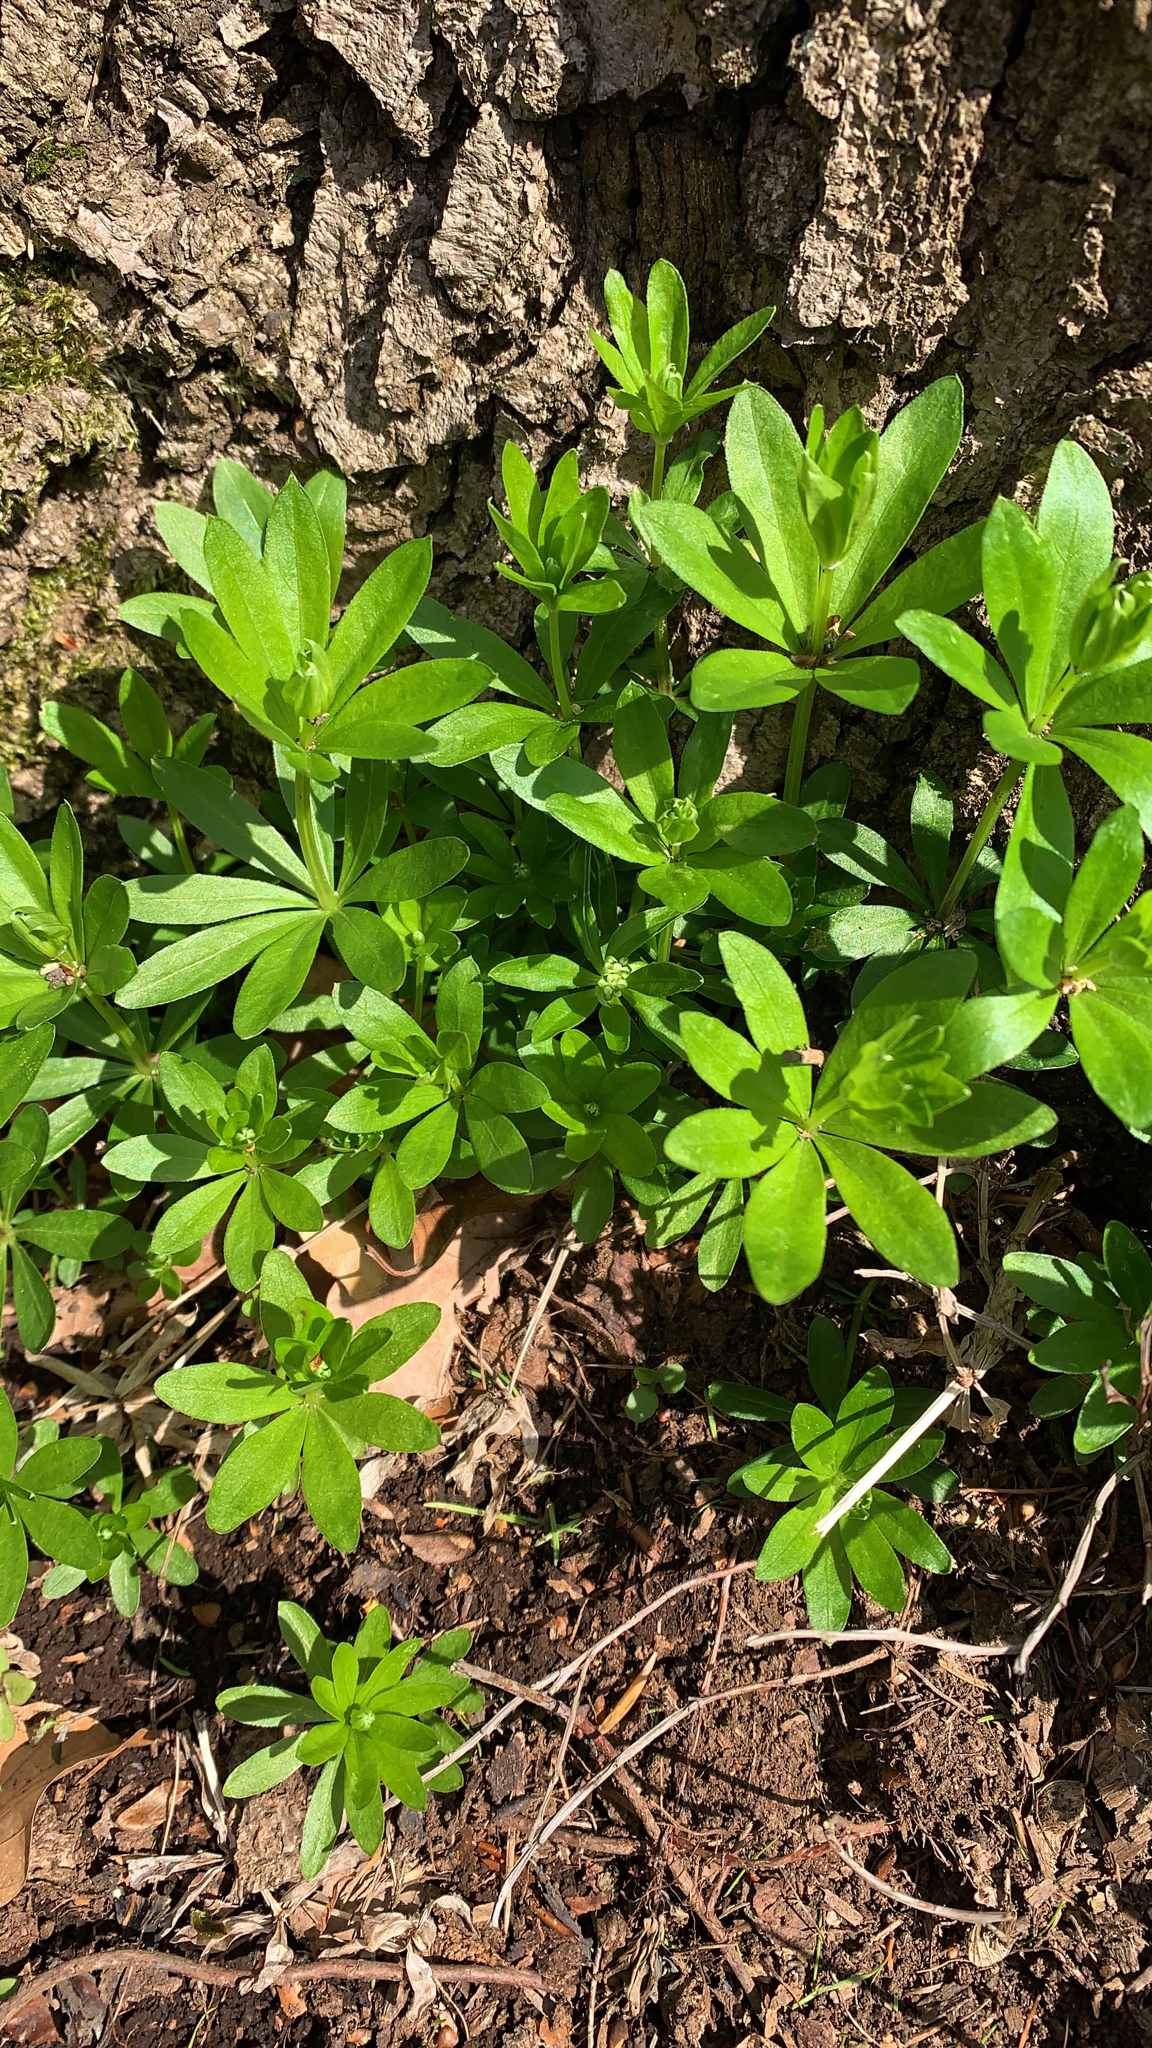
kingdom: Plantae
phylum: Tracheophyta
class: Magnoliopsida
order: Gentianales
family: Rubiaceae
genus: Galium
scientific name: Galium odoratum
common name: Sweet woodruff
